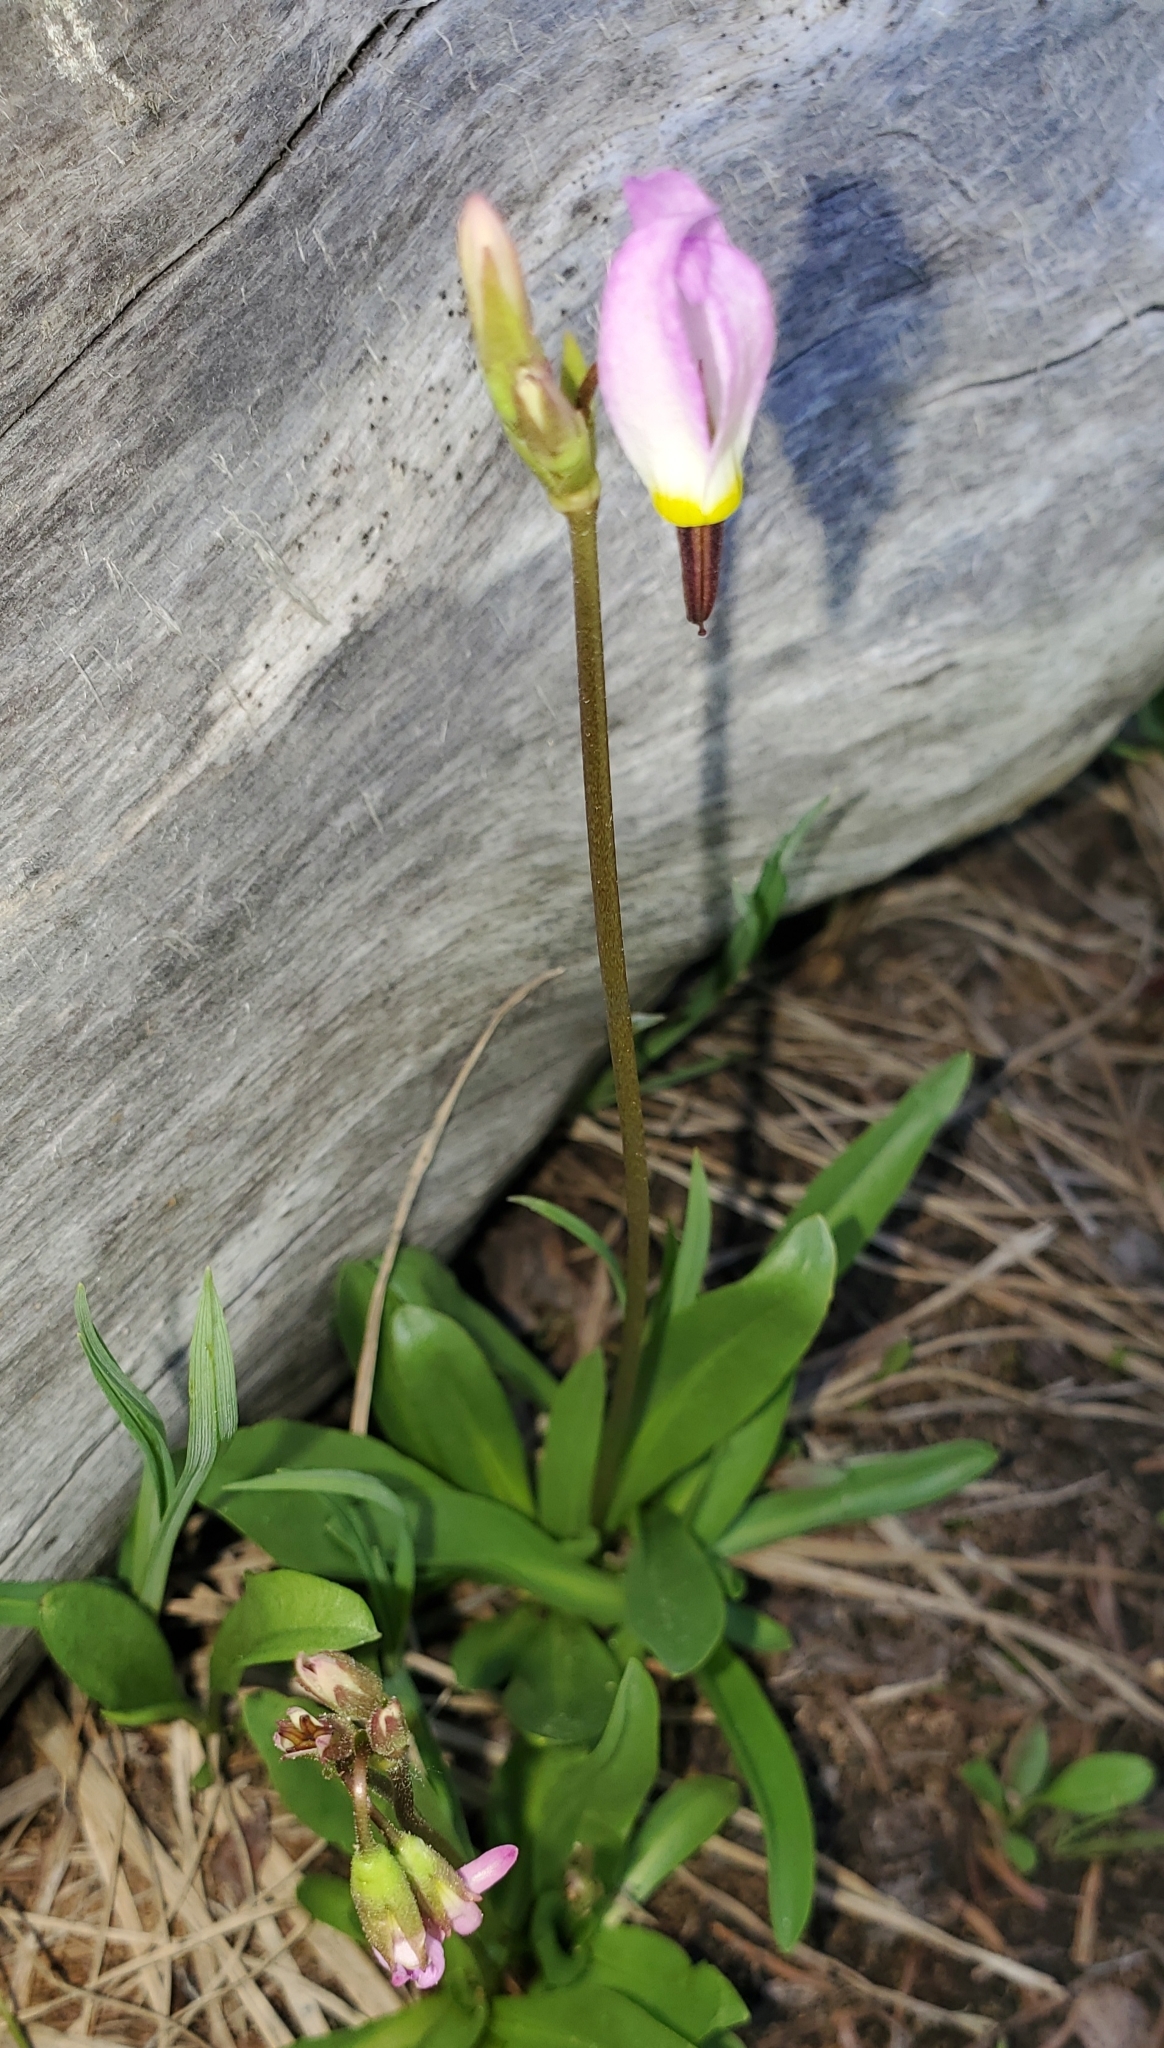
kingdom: Plantae
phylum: Tracheophyta
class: Magnoliopsida
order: Ericales
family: Primulaceae
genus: Dodecatheon
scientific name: Dodecatheon alpinum
